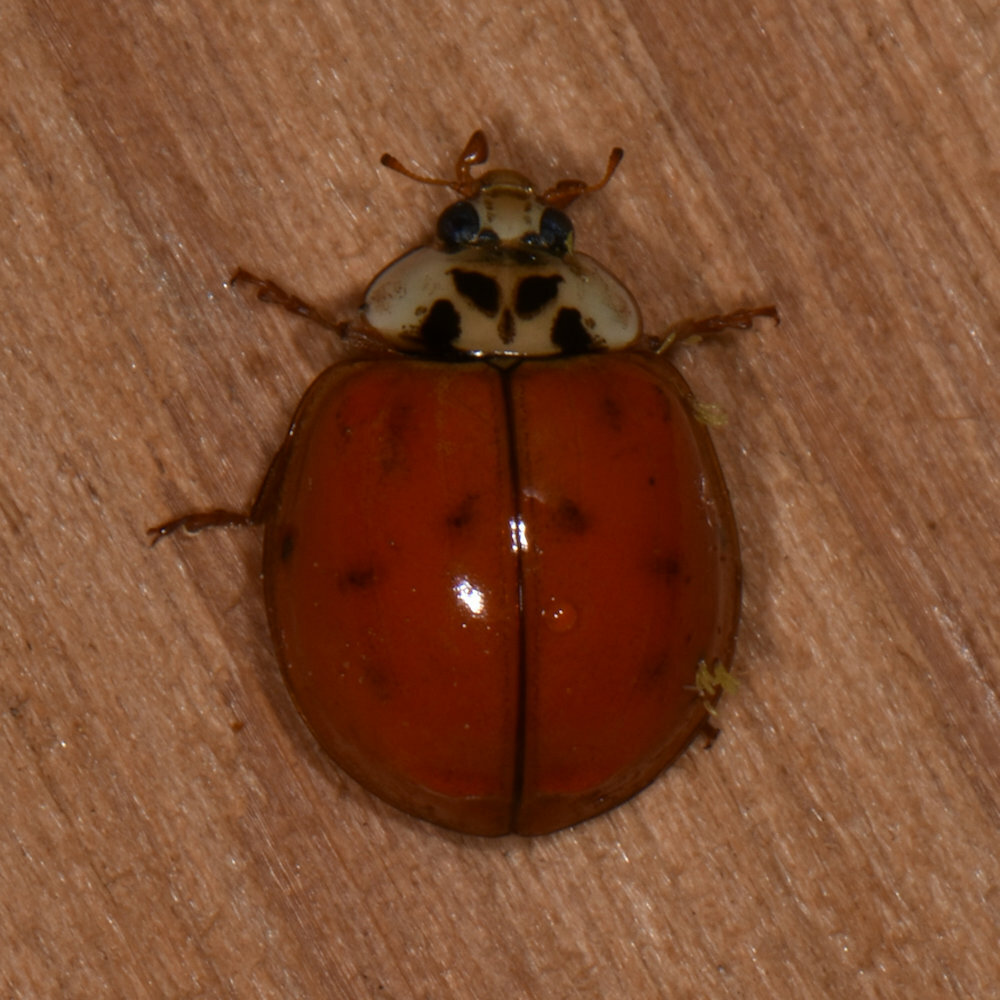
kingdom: Animalia
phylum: Arthropoda
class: Insecta
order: Coleoptera
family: Coccinellidae
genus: Harmonia
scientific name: Harmonia axyridis
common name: Harlequin ladybird
